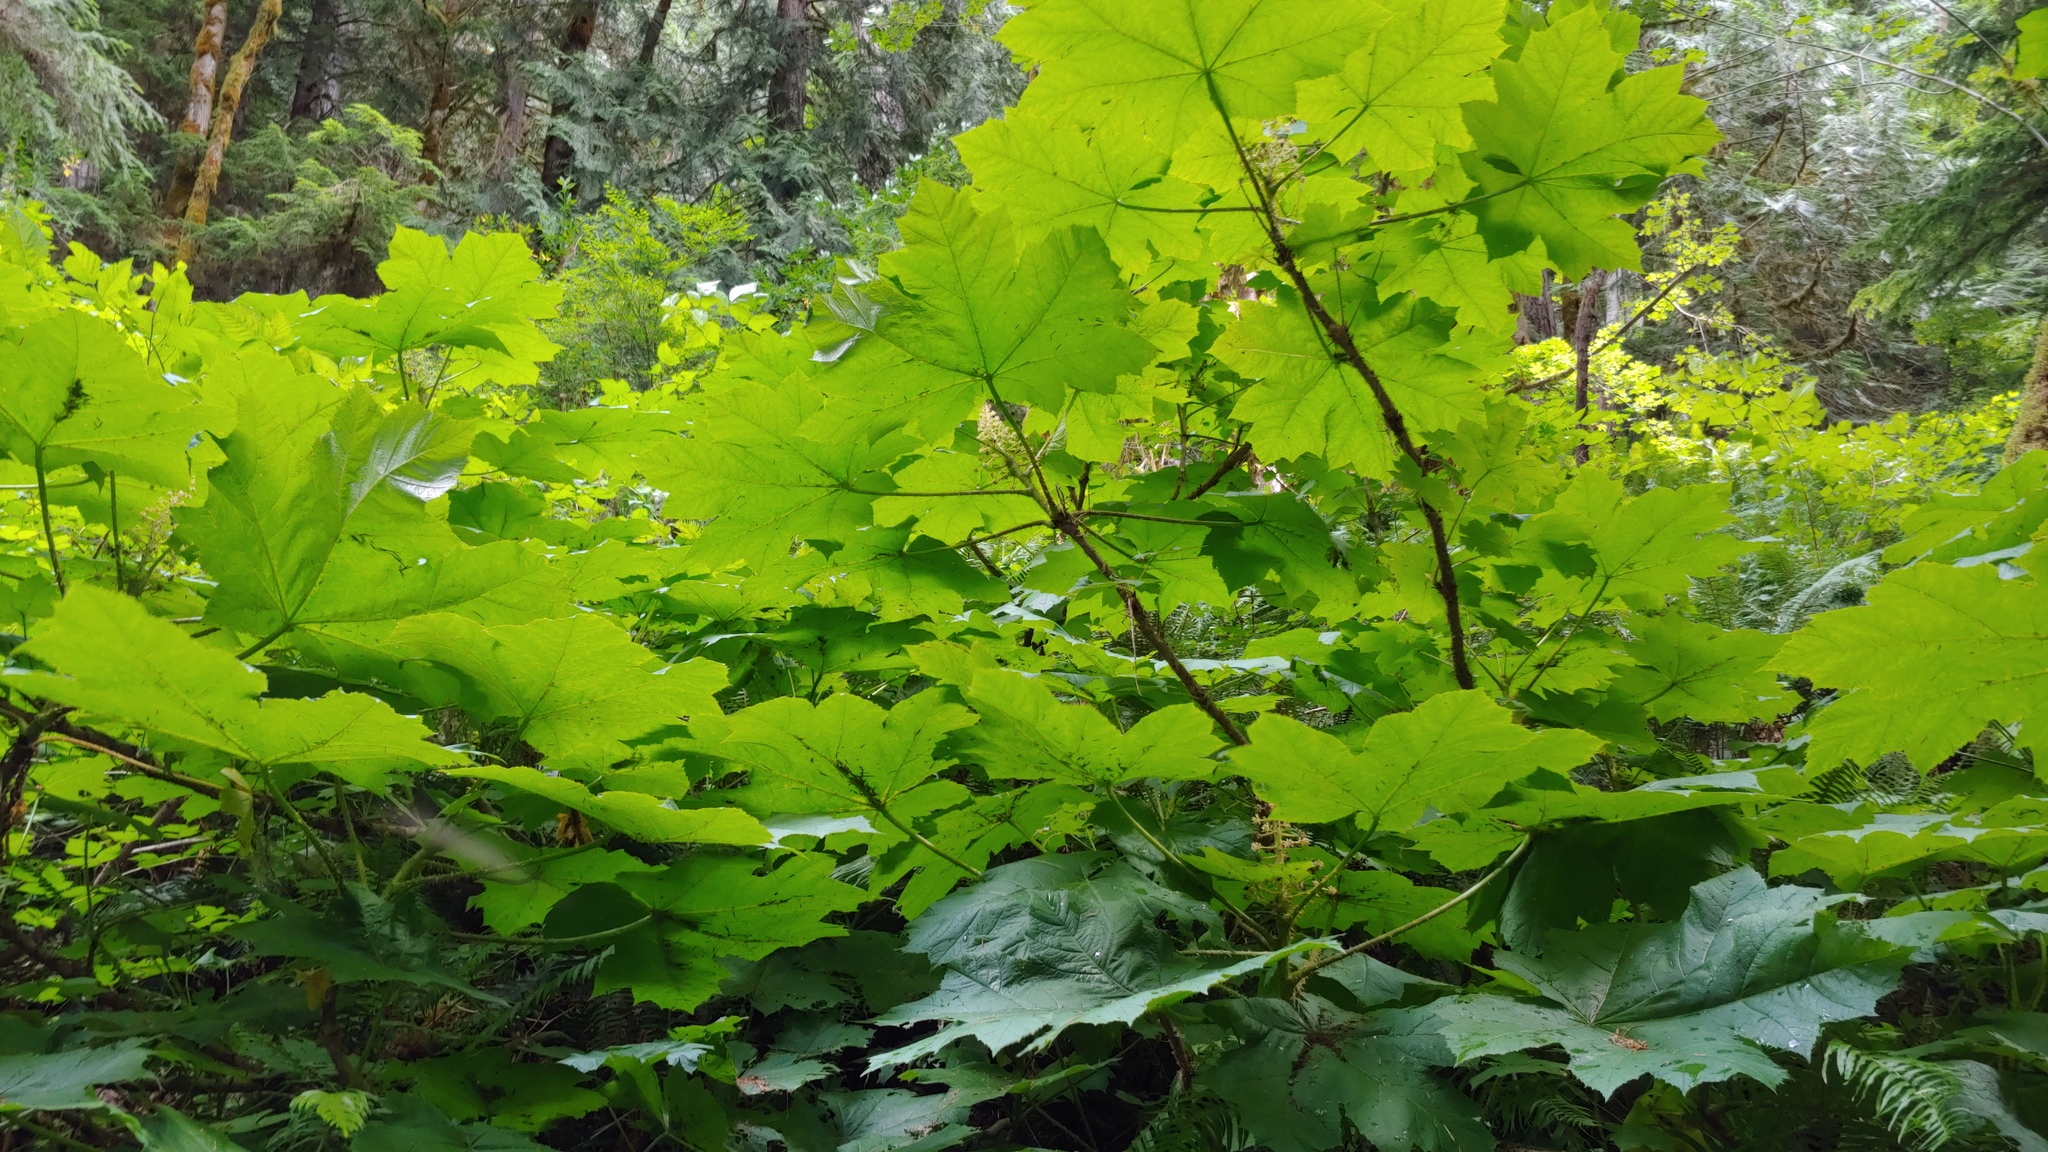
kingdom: Plantae
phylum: Tracheophyta
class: Magnoliopsida
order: Apiales
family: Araliaceae
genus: Oplopanax
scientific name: Oplopanax horridus
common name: Devil's walking-stick
